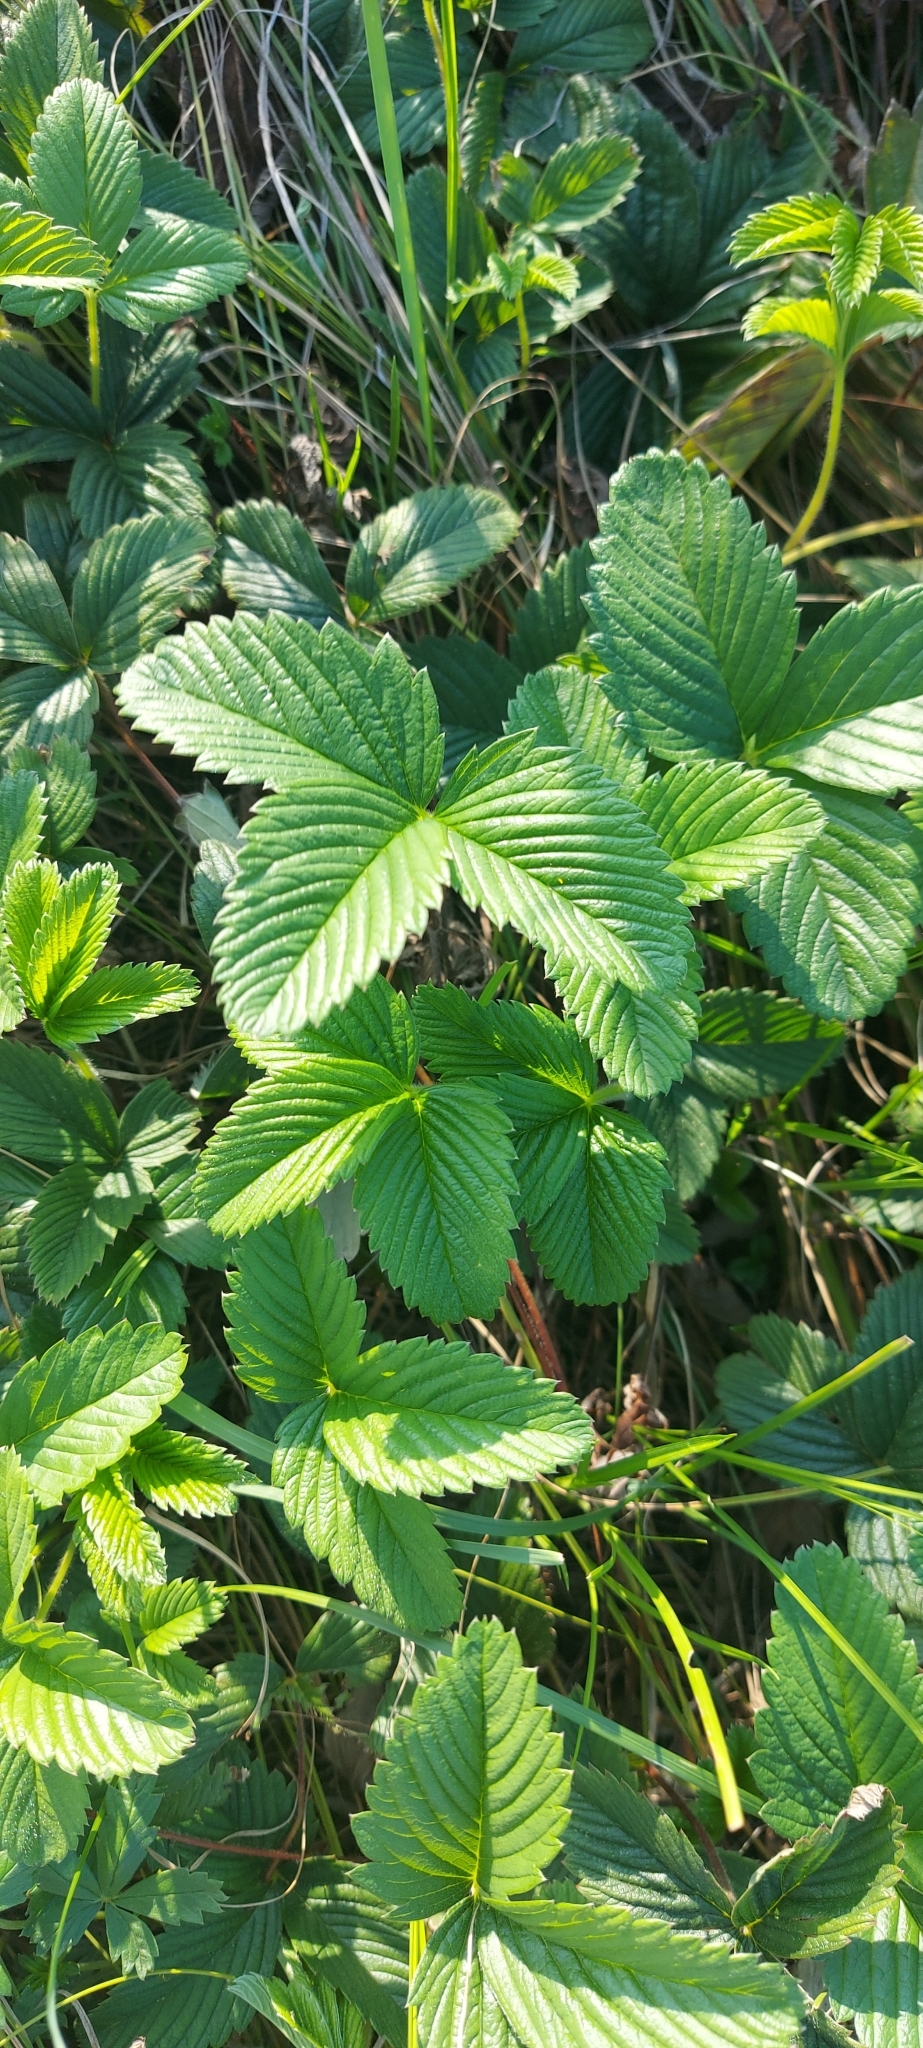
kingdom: Plantae
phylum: Tracheophyta
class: Magnoliopsida
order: Rosales
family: Rosaceae
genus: Fragaria
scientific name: Fragaria viridis
